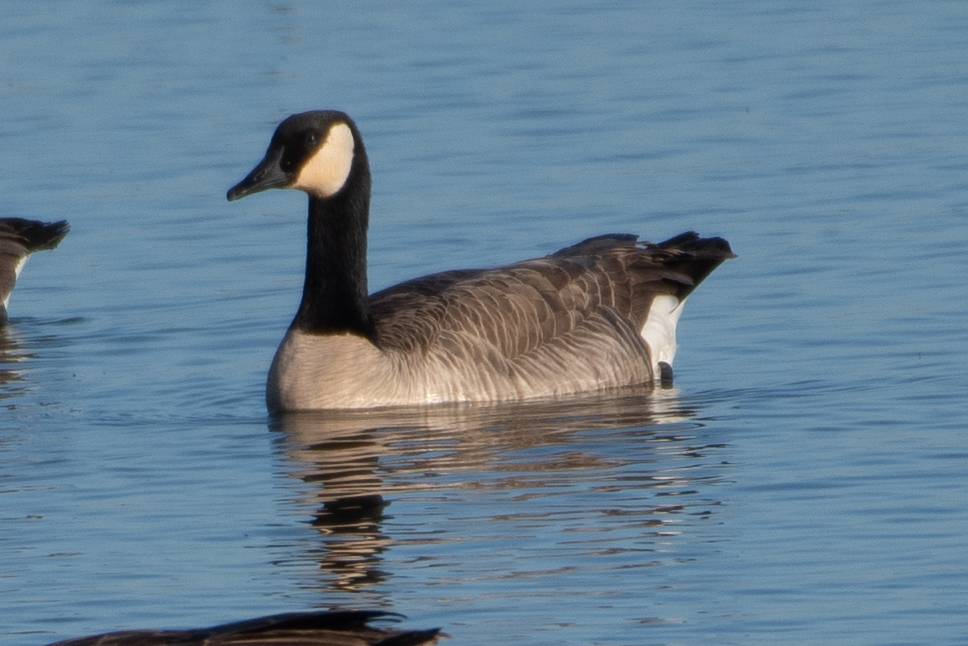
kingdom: Animalia
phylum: Chordata
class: Aves
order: Anseriformes
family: Anatidae
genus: Branta
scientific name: Branta canadensis
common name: Canada goose
